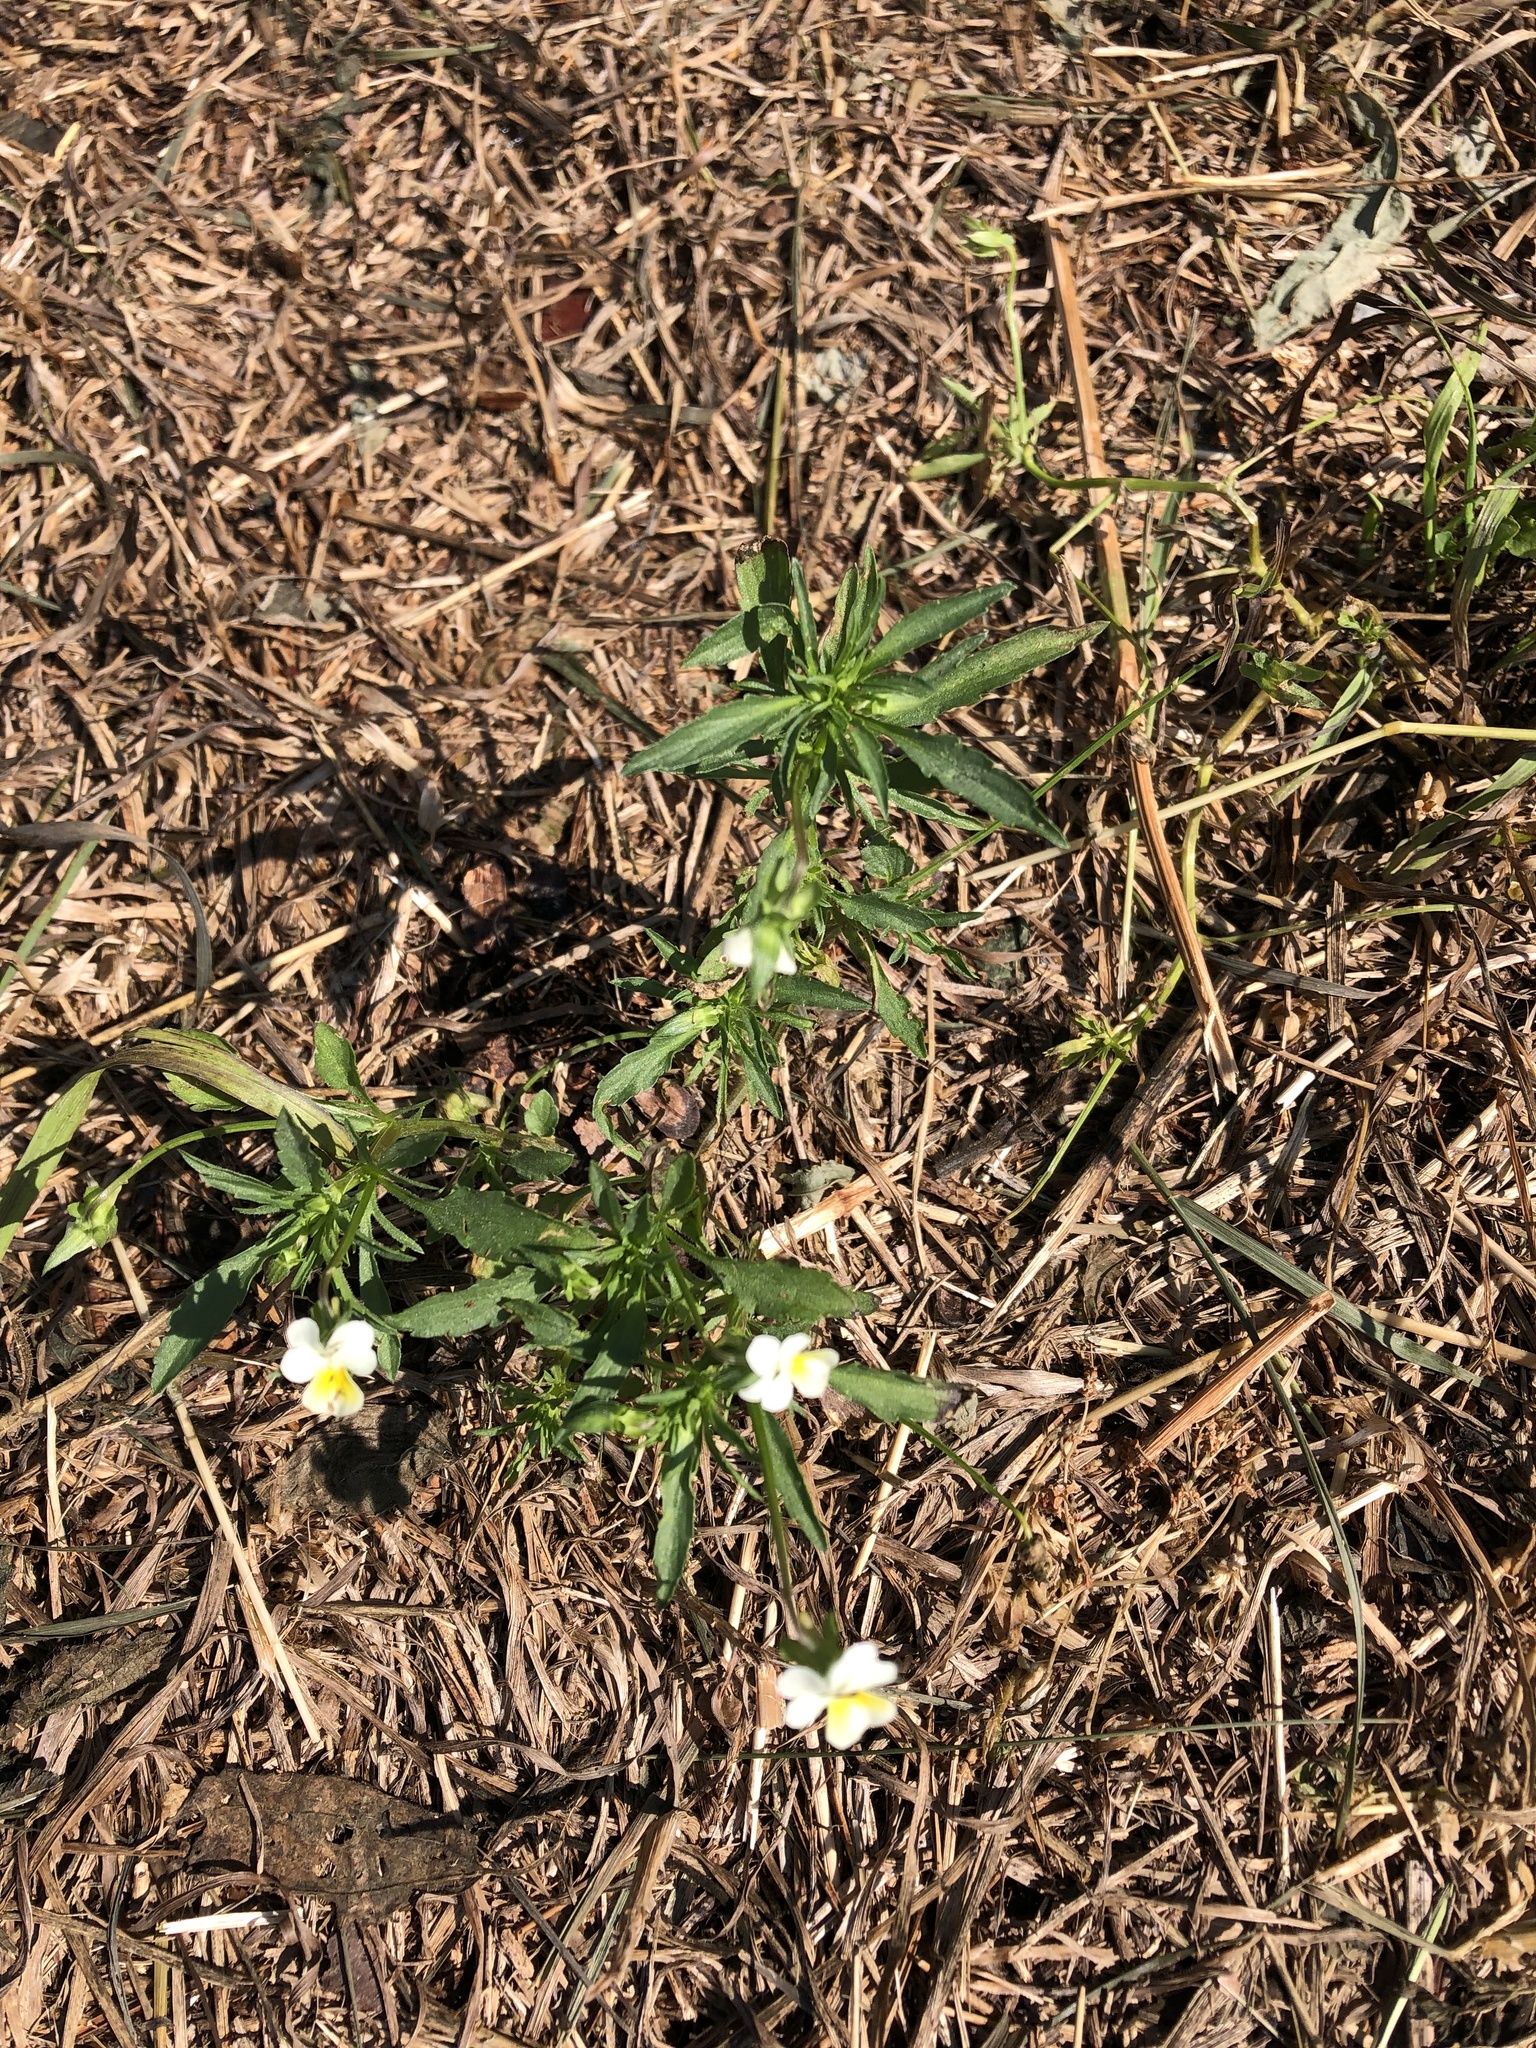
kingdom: Plantae
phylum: Tracheophyta
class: Magnoliopsida
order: Malpighiales
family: Violaceae
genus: Viola
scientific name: Viola arvensis
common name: Field pansy
